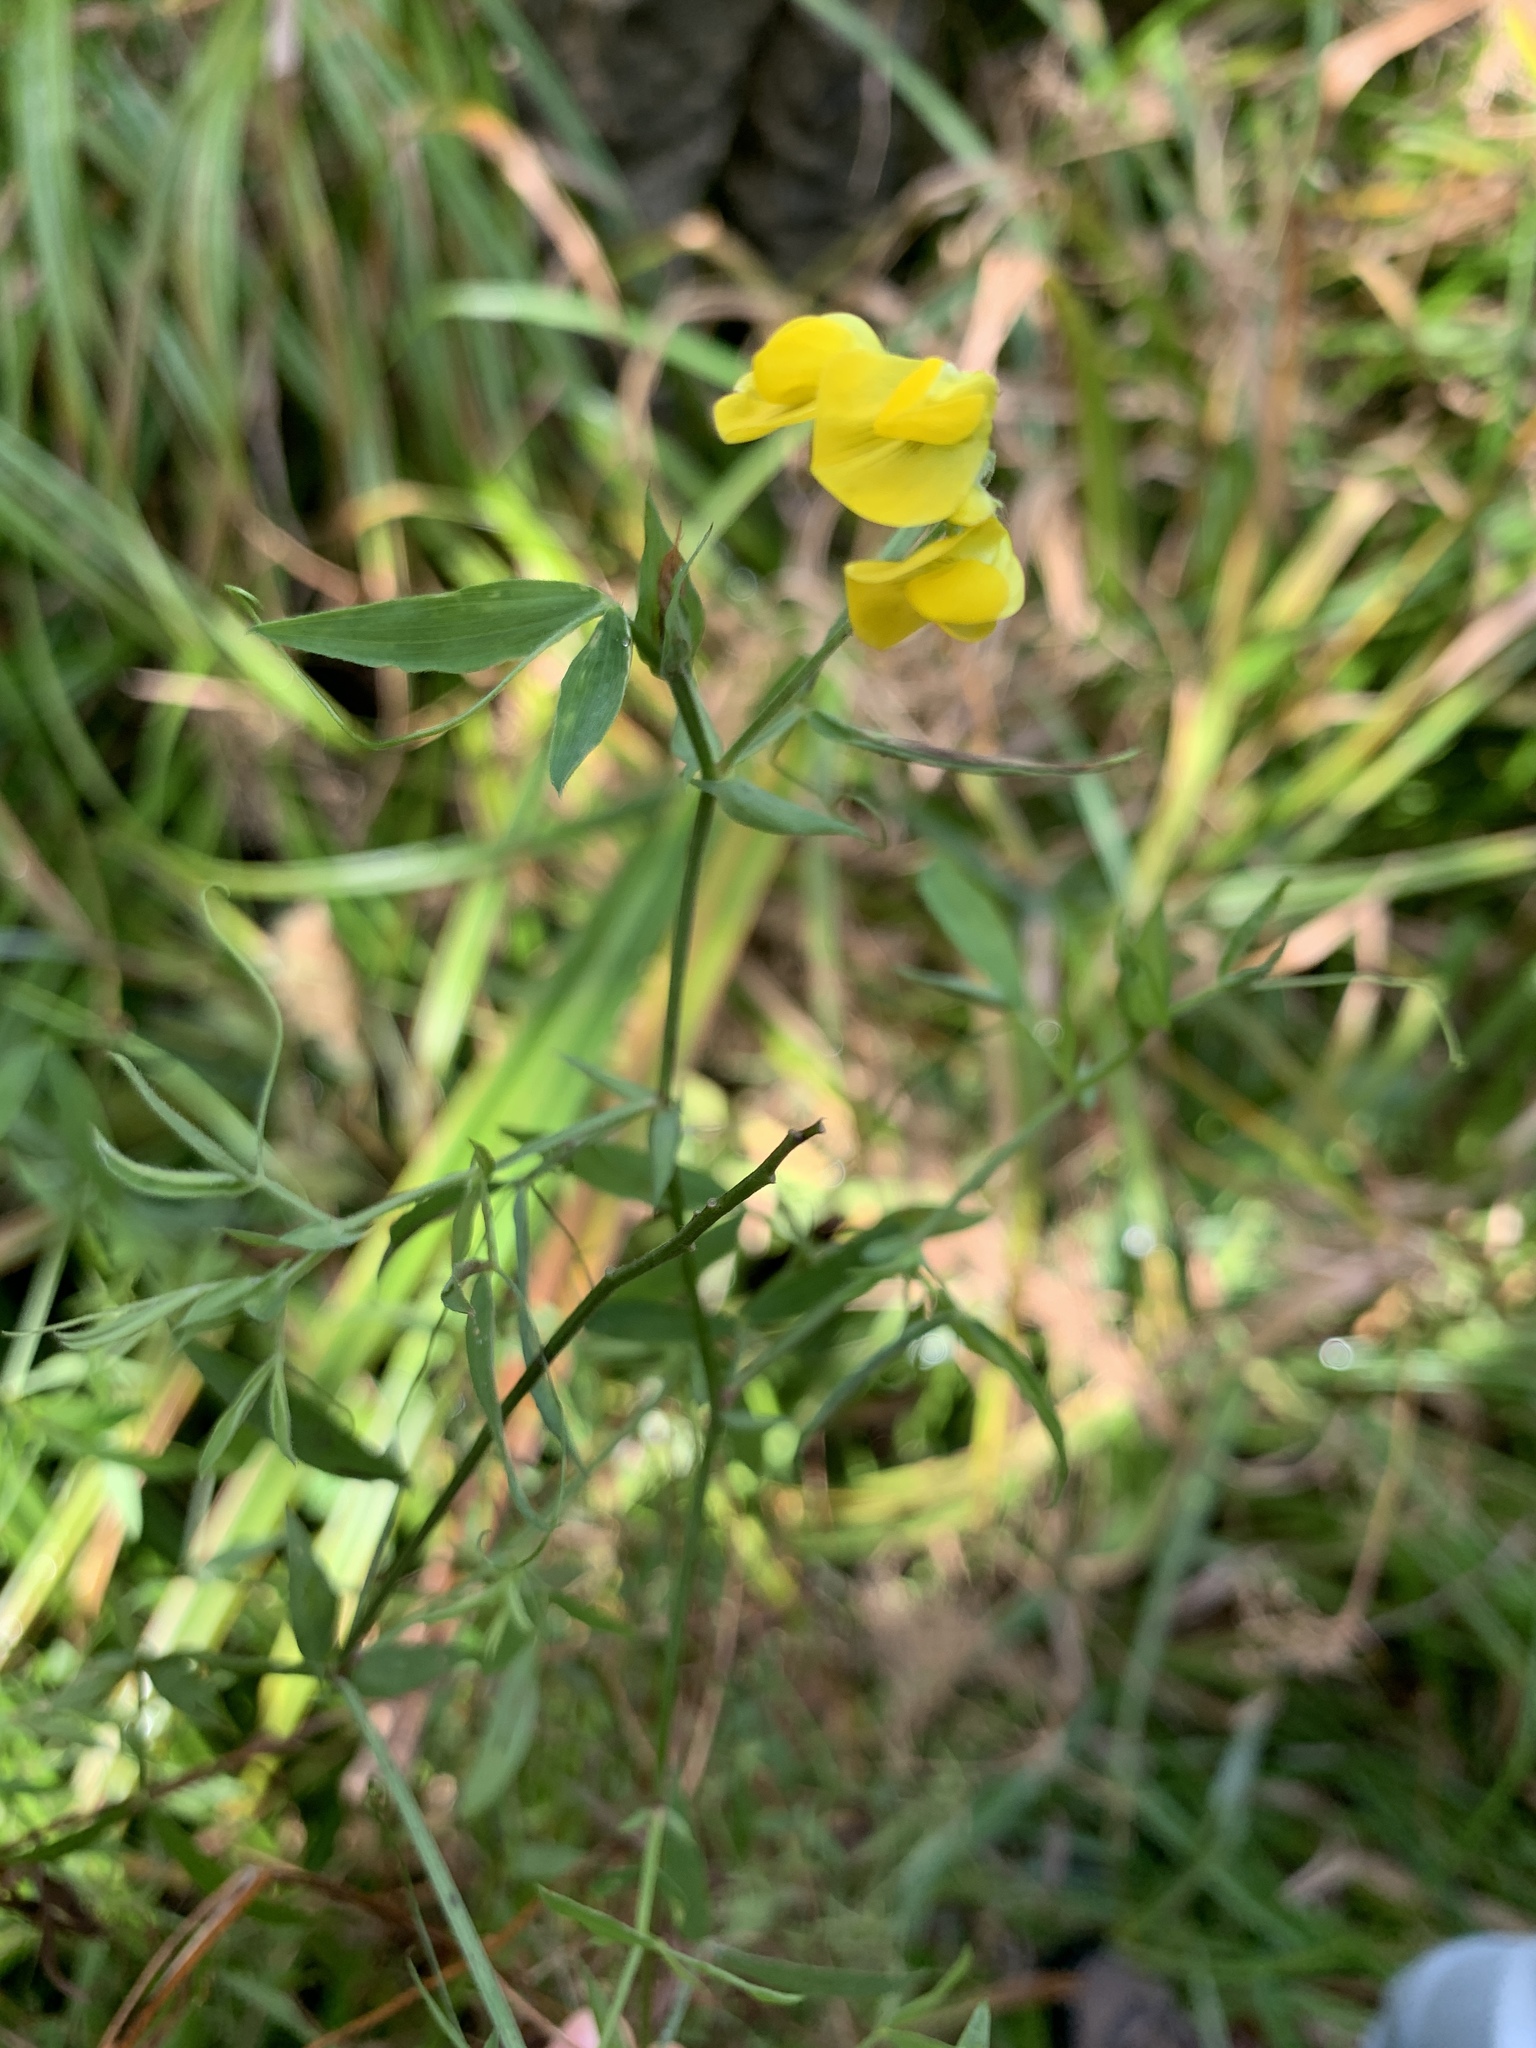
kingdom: Plantae
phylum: Tracheophyta
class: Magnoliopsida
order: Fabales
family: Fabaceae
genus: Lathyrus
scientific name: Lathyrus pratensis
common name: Meadow vetchling
